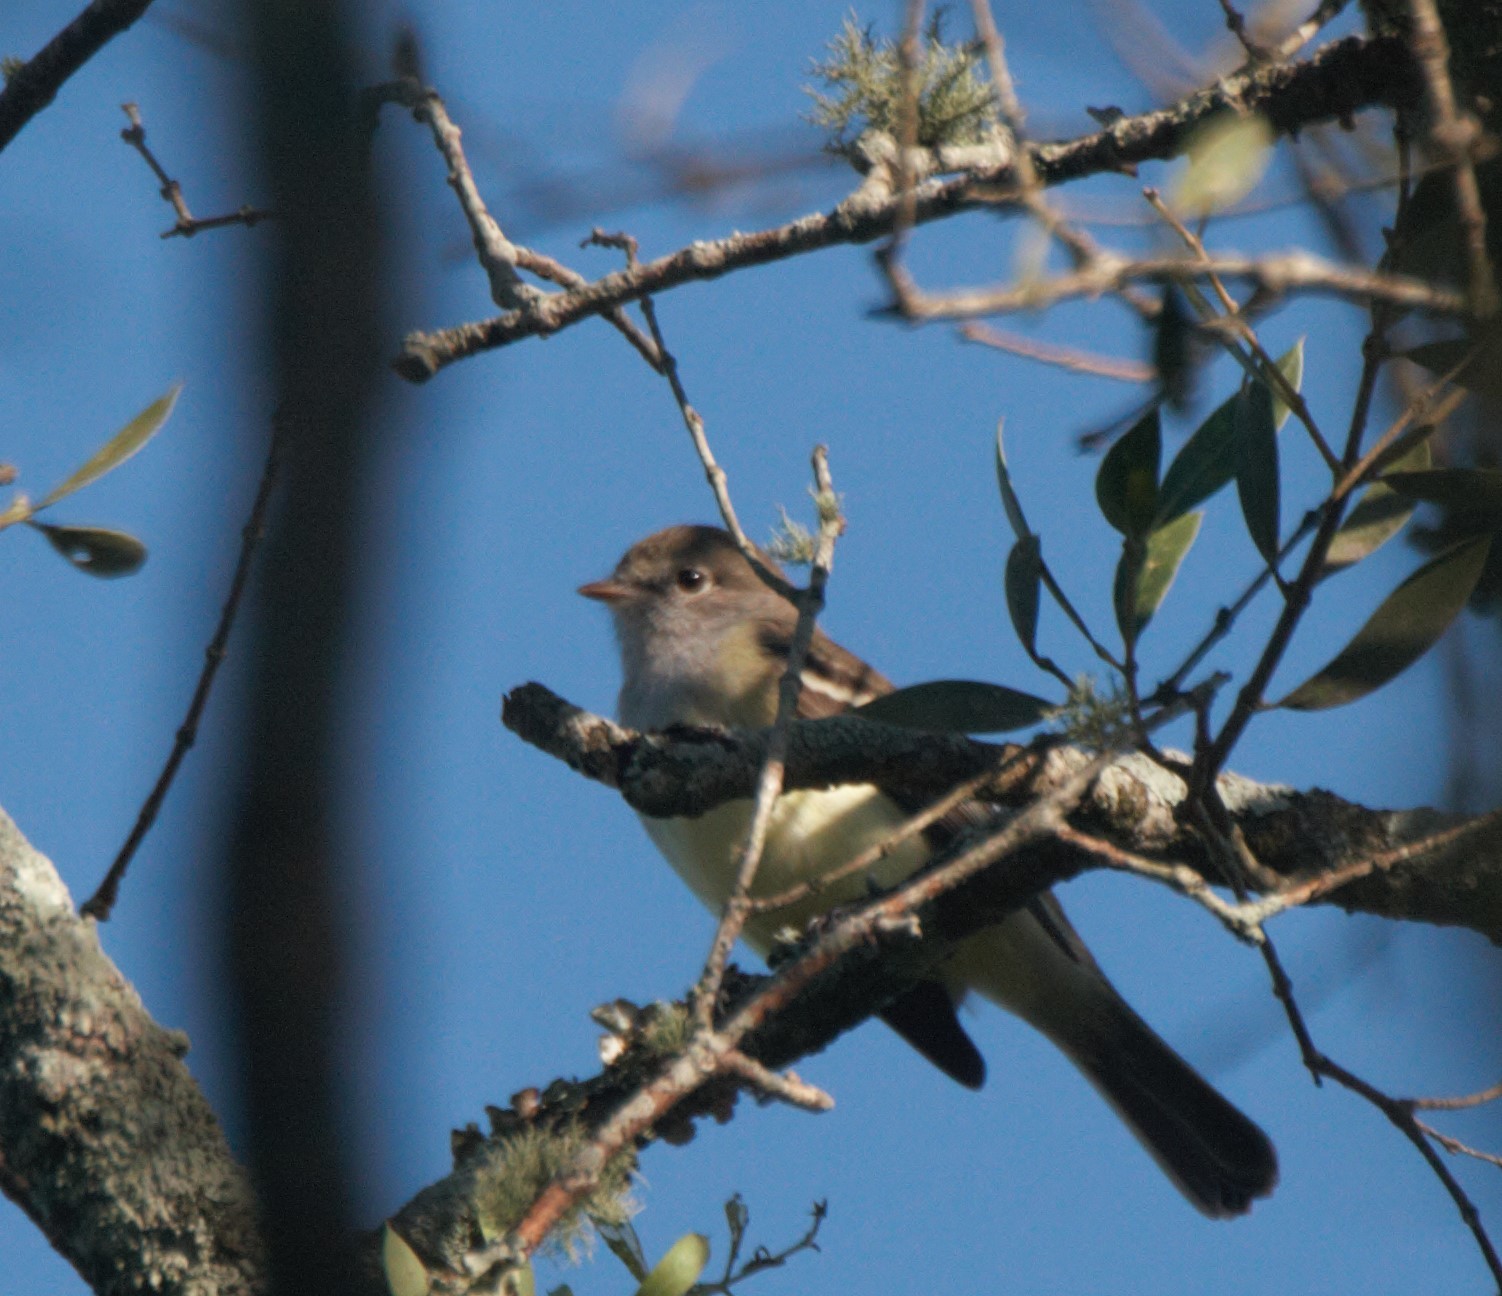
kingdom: Animalia
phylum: Chordata
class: Aves
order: Passeriformes
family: Tyrannidae
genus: Elaenia
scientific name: Elaenia parvirostris
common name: Small-billed elaenia
